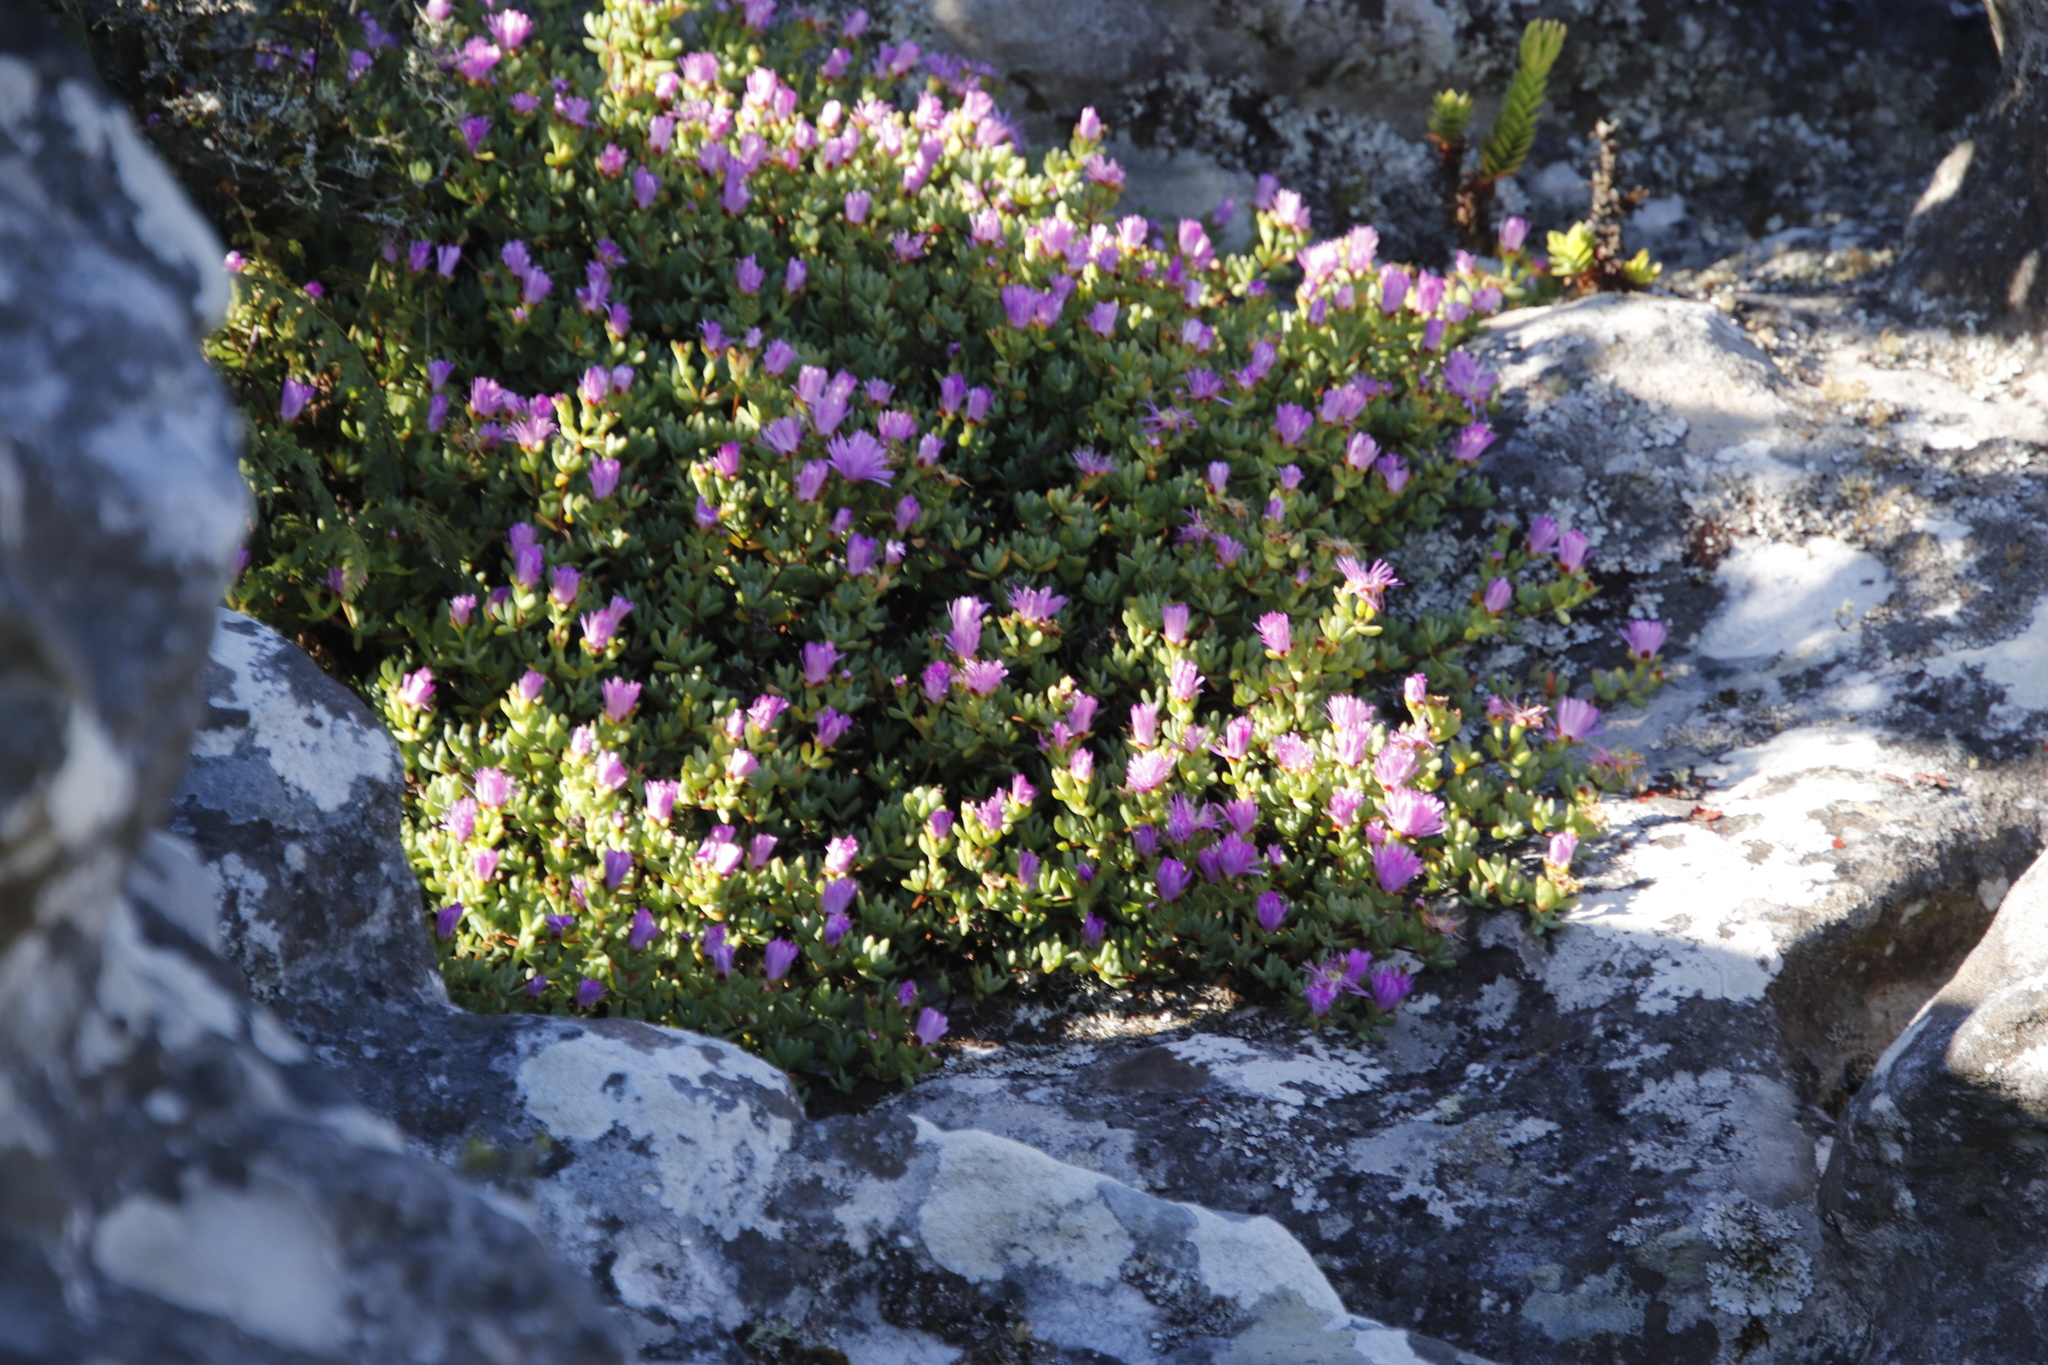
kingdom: Plantae
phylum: Tracheophyta
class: Magnoliopsida
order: Caryophyllales
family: Aizoaceae
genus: Oscularia
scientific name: Oscularia falciformis
